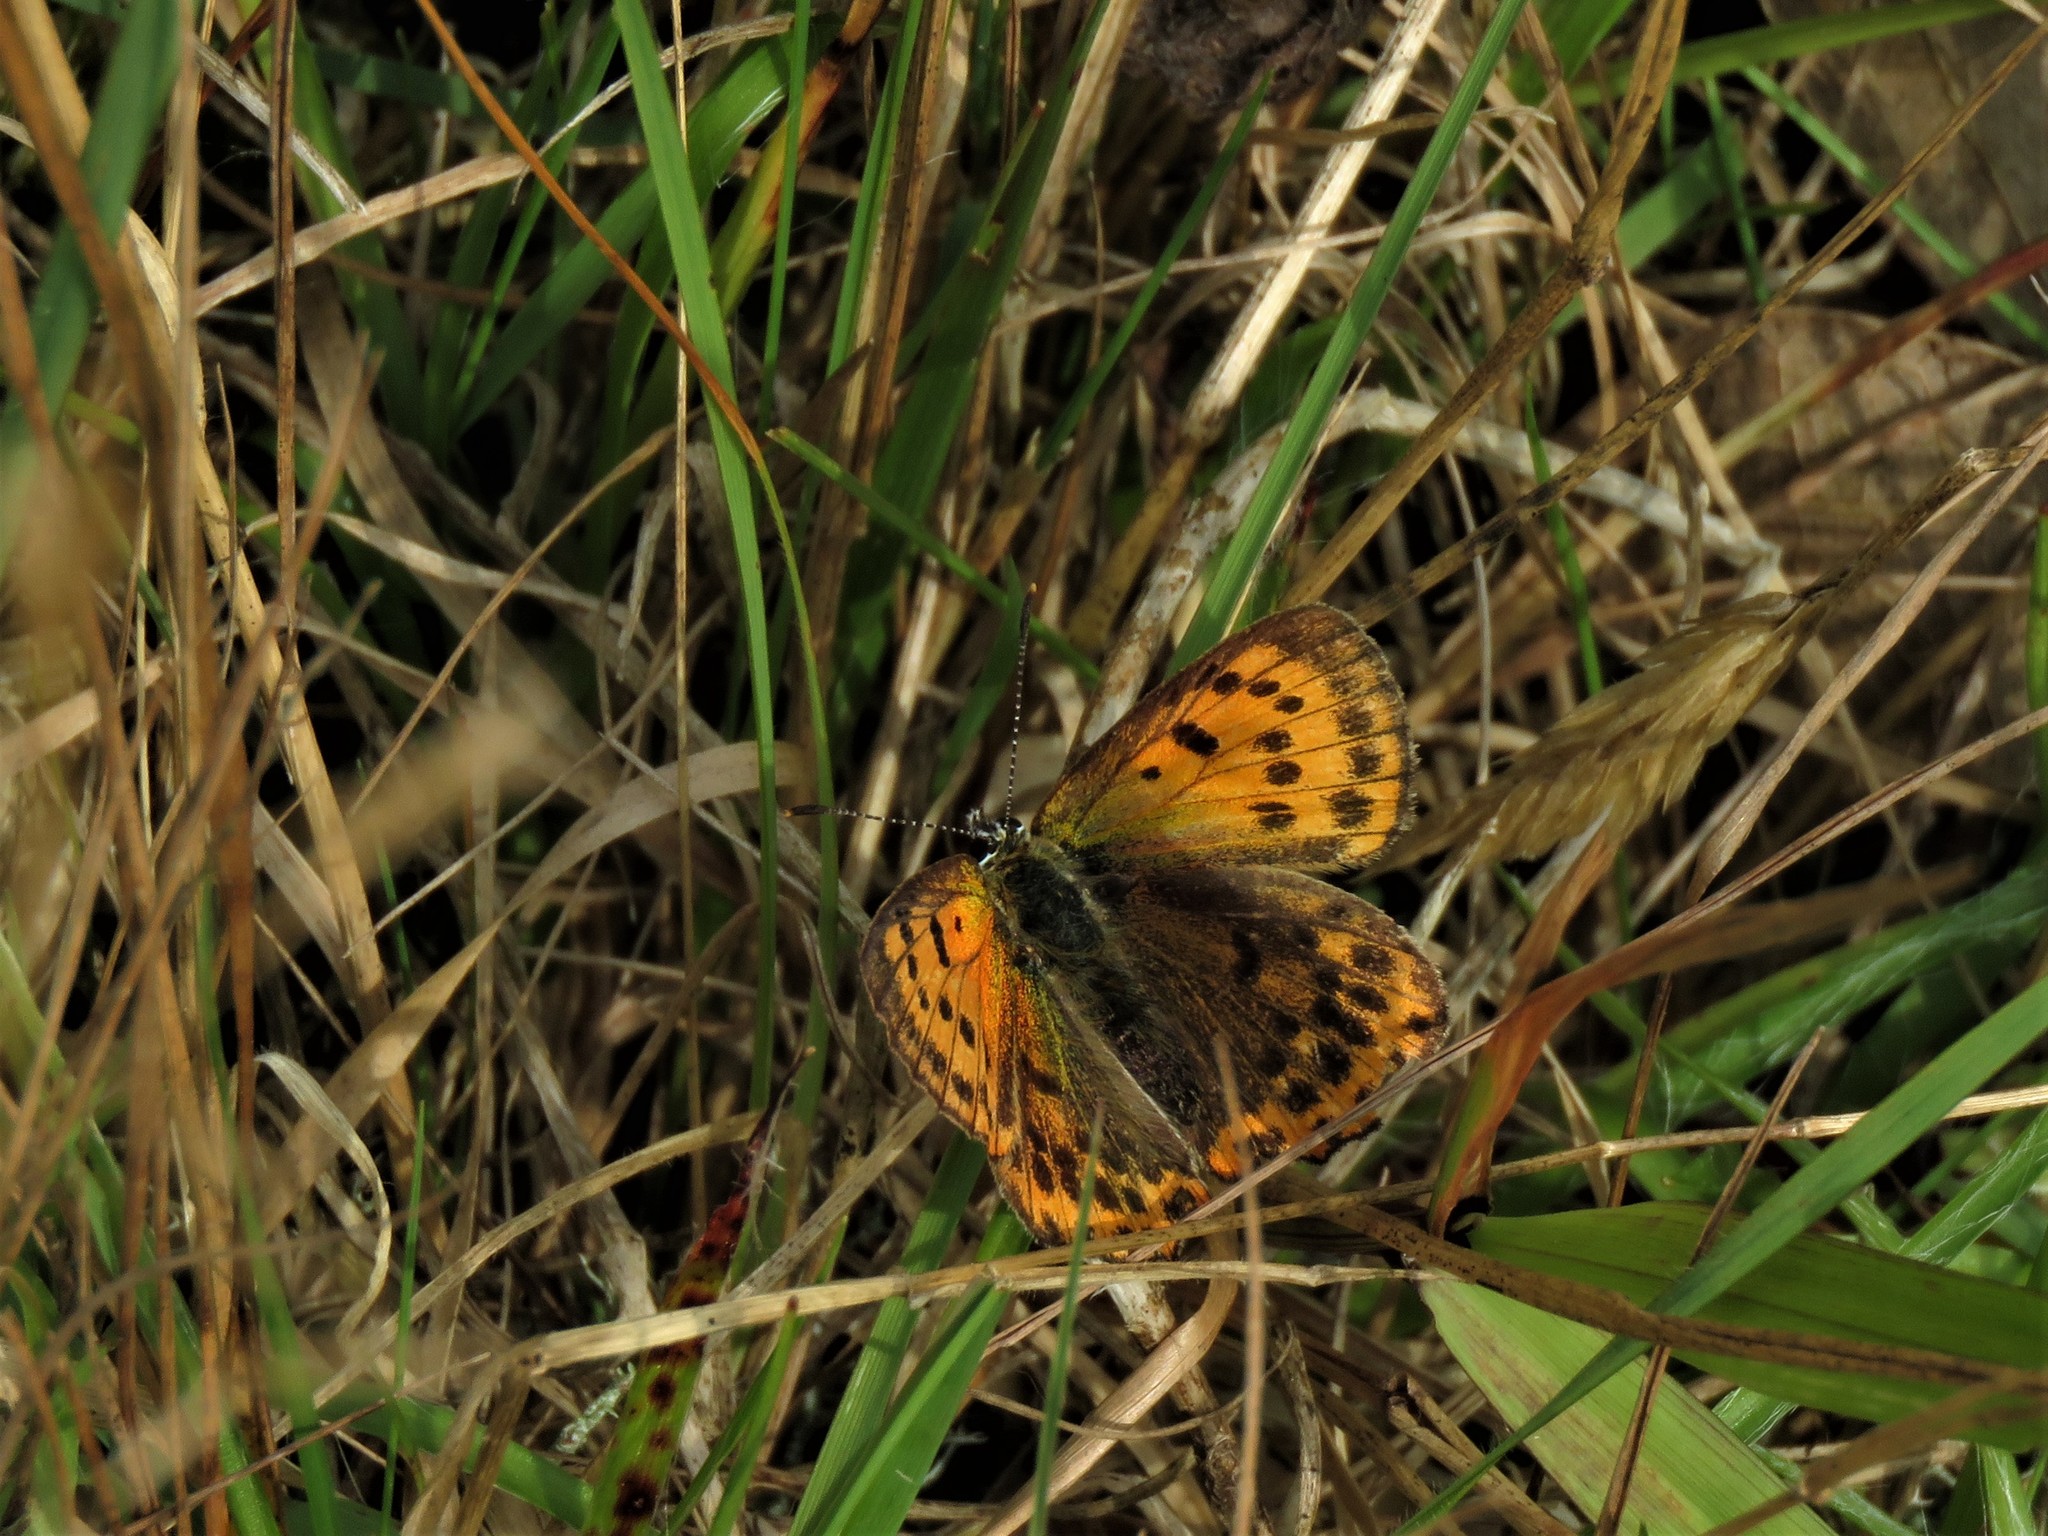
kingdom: Animalia
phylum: Arthropoda
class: Insecta
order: Lepidoptera
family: Lycaenidae
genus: Lycaena
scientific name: Lycaena virgaureae
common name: Scarce copper
